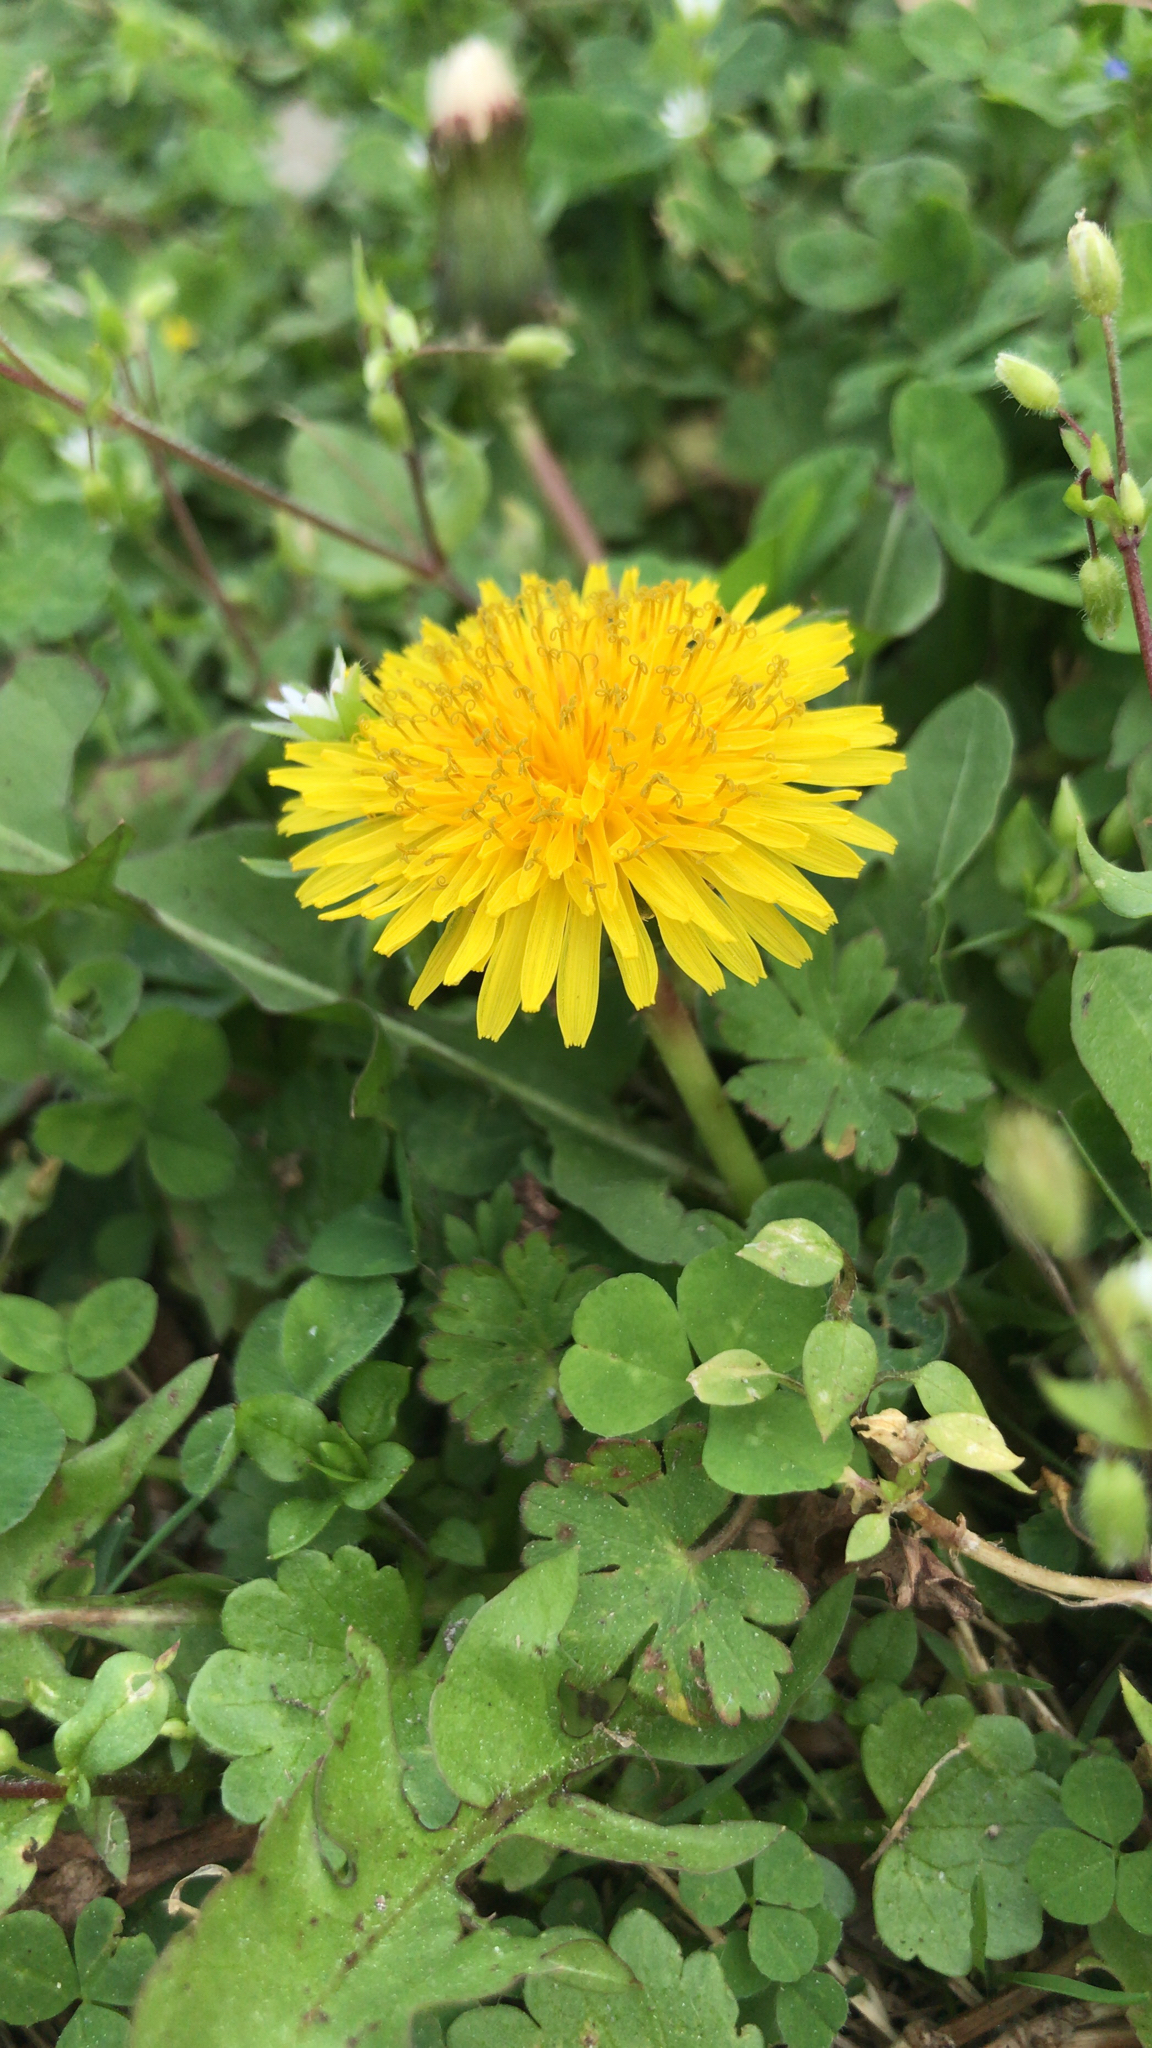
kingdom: Plantae
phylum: Tracheophyta
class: Magnoliopsida
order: Asterales
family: Asteraceae
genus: Taraxacum
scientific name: Taraxacum officinale
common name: Common dandelion
